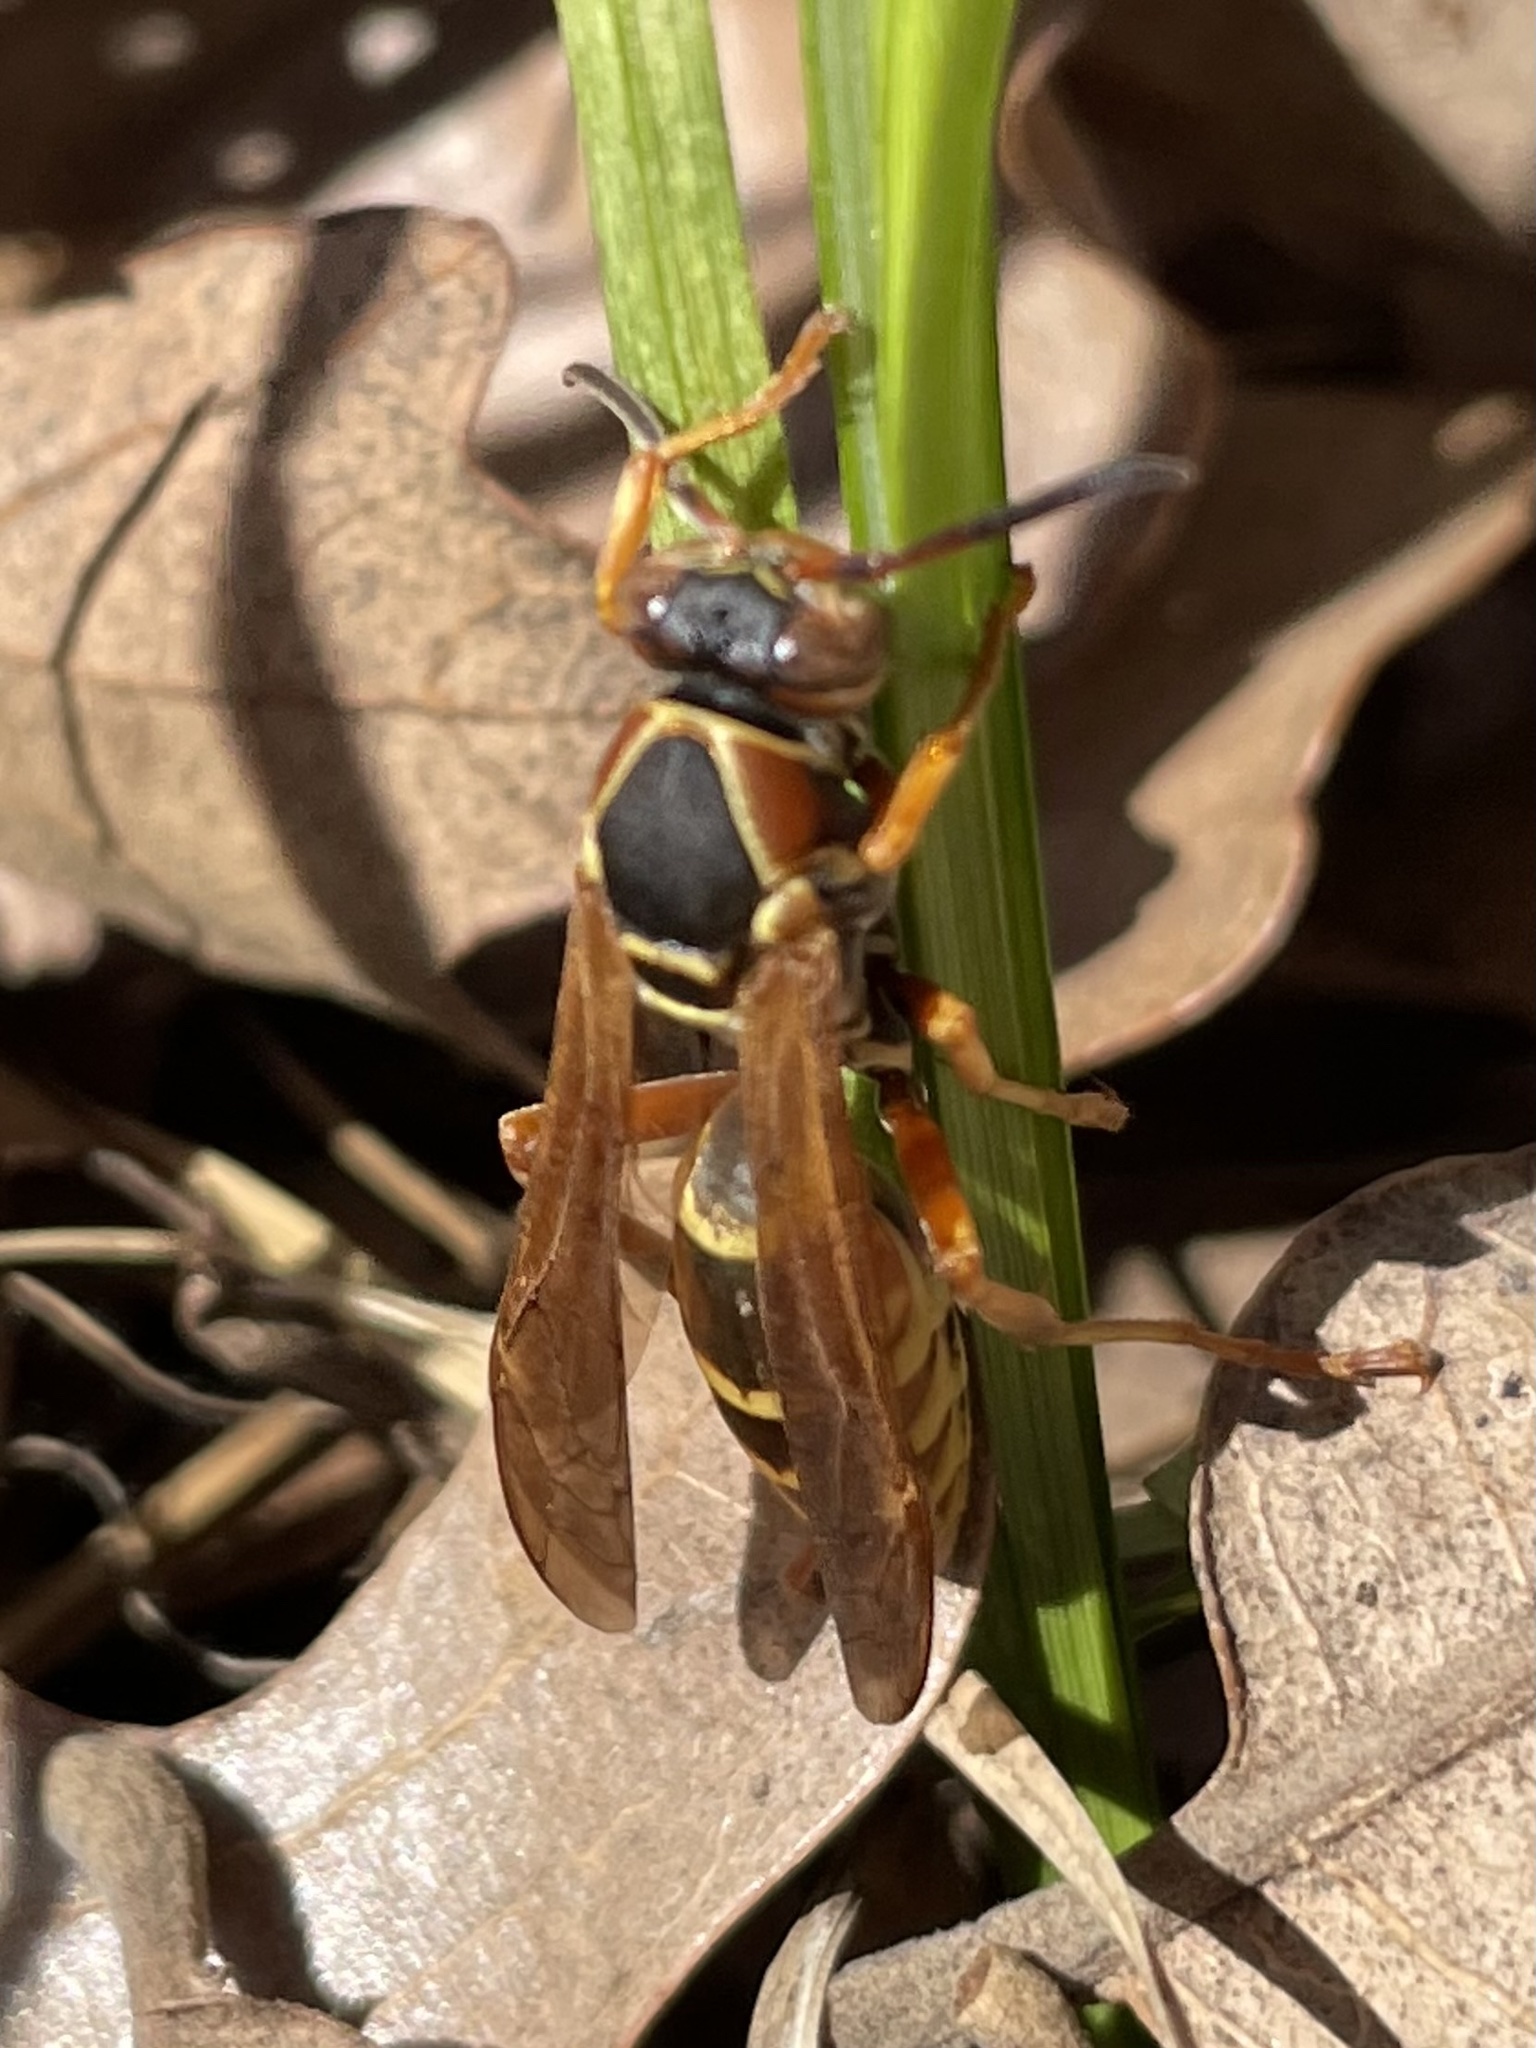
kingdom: Animalia
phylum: Arthropoda
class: Insecta
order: Hymenoptera
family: Eumenidae
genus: Polistes
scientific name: Polistes fuscatus
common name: Dark paper wasp
